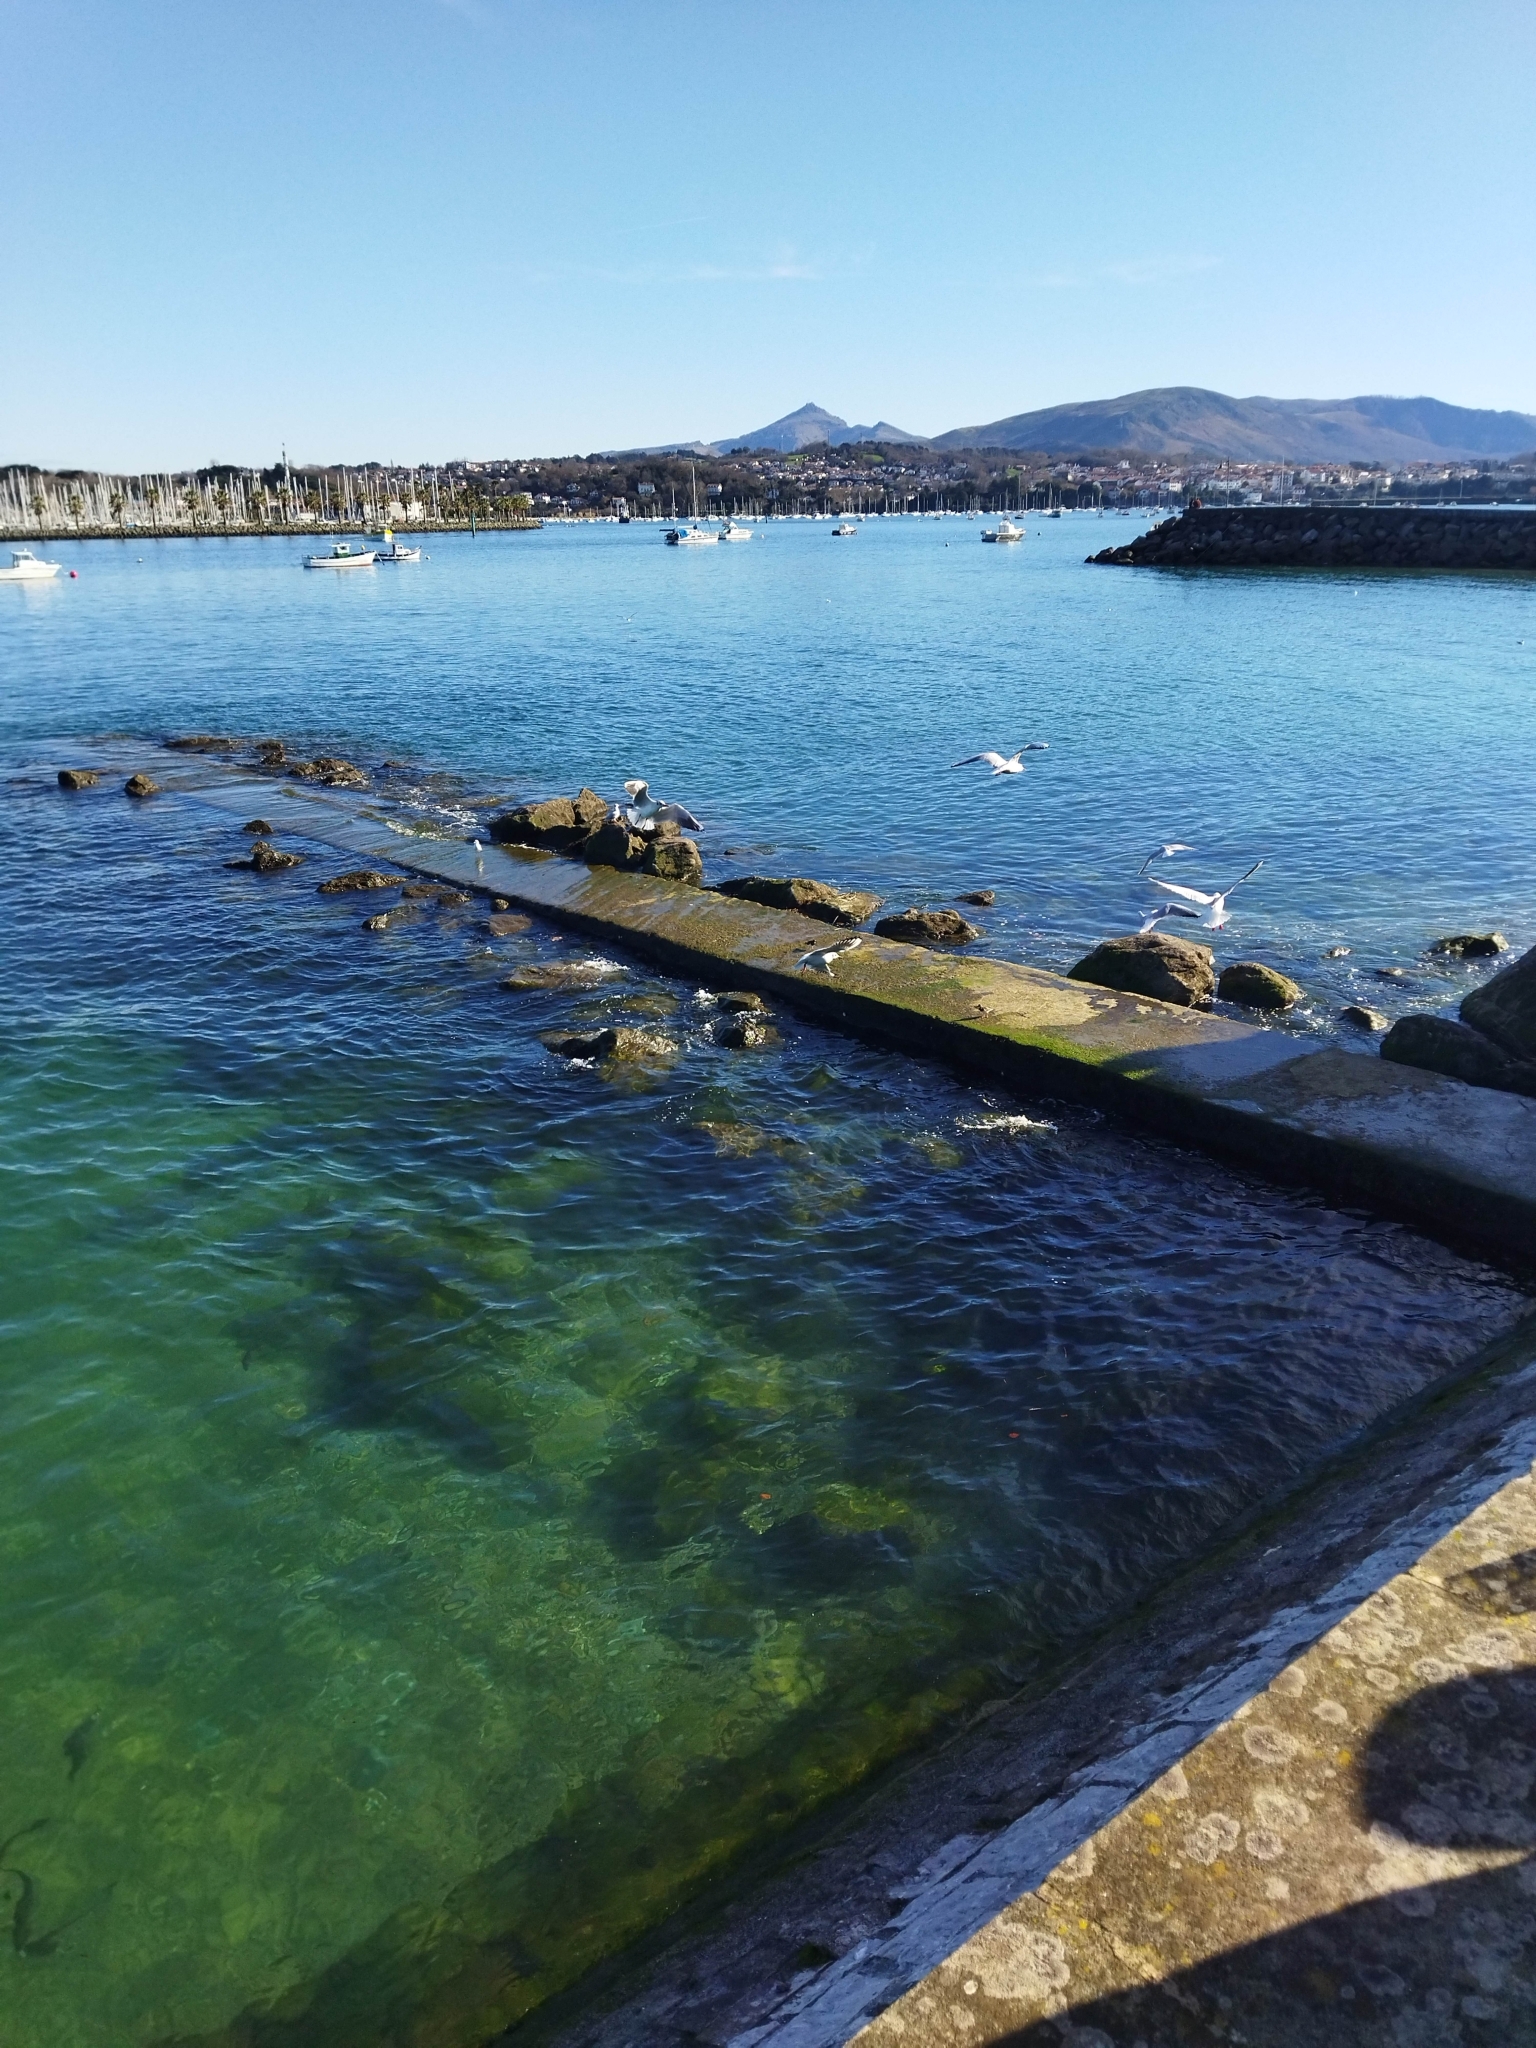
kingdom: Animalia
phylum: Chordata
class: Aves
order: Charadriiformes
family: Laridae
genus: Chroicocephalus
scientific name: Chroicocephalus ridibundus
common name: Black-headed gull
